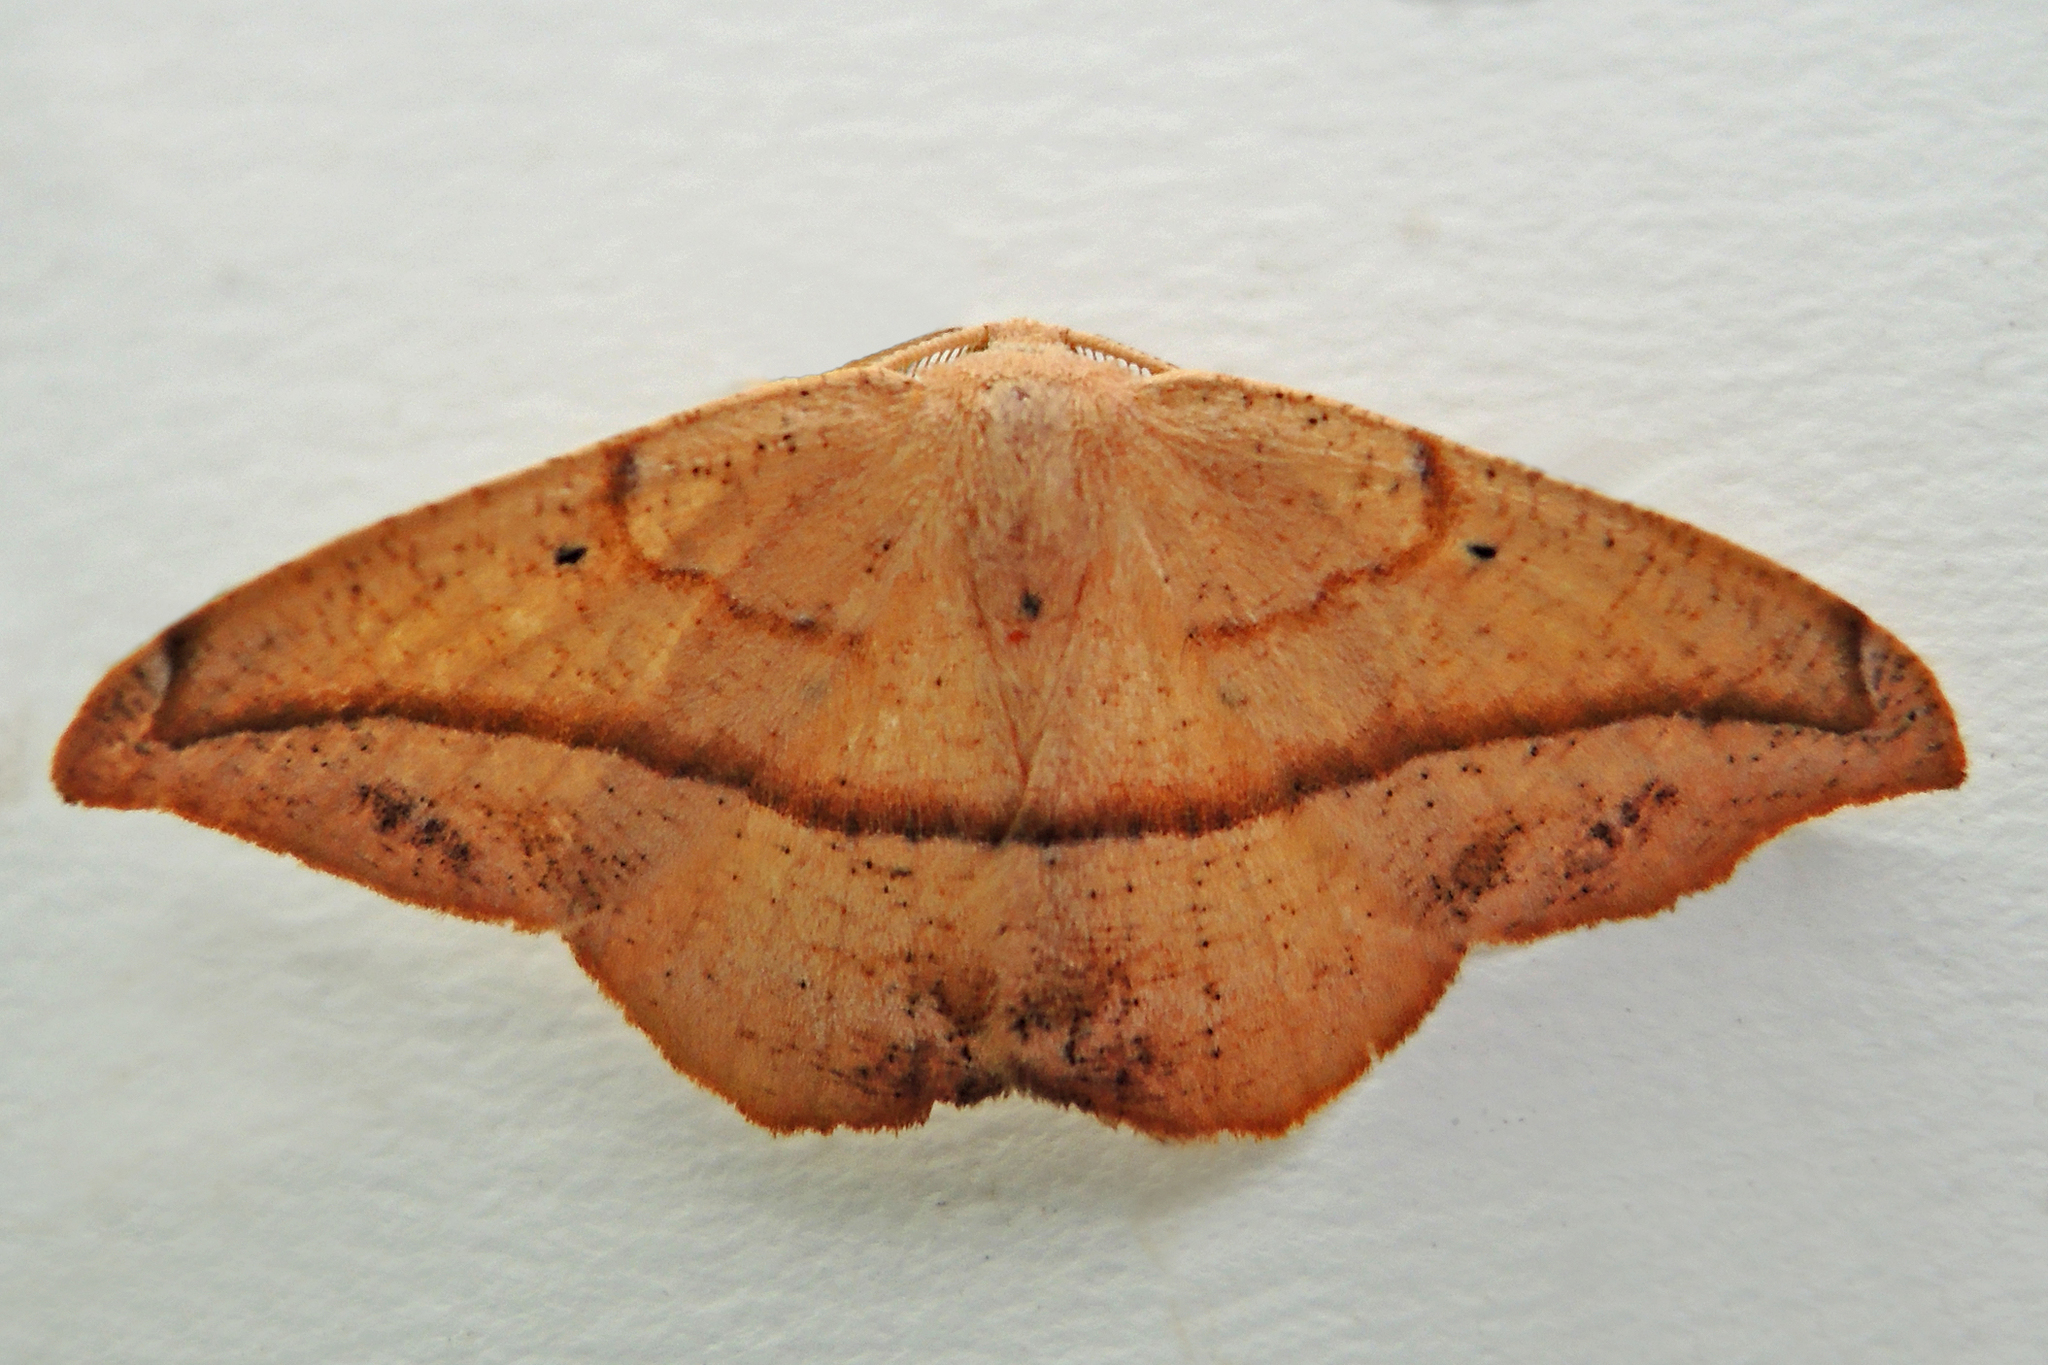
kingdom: Animalia
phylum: Arthropoda
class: Insecta
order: Lepidoptera
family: Geometridae
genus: Patalene
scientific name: Patalene olyzonaria
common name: Juniper geometer moth
